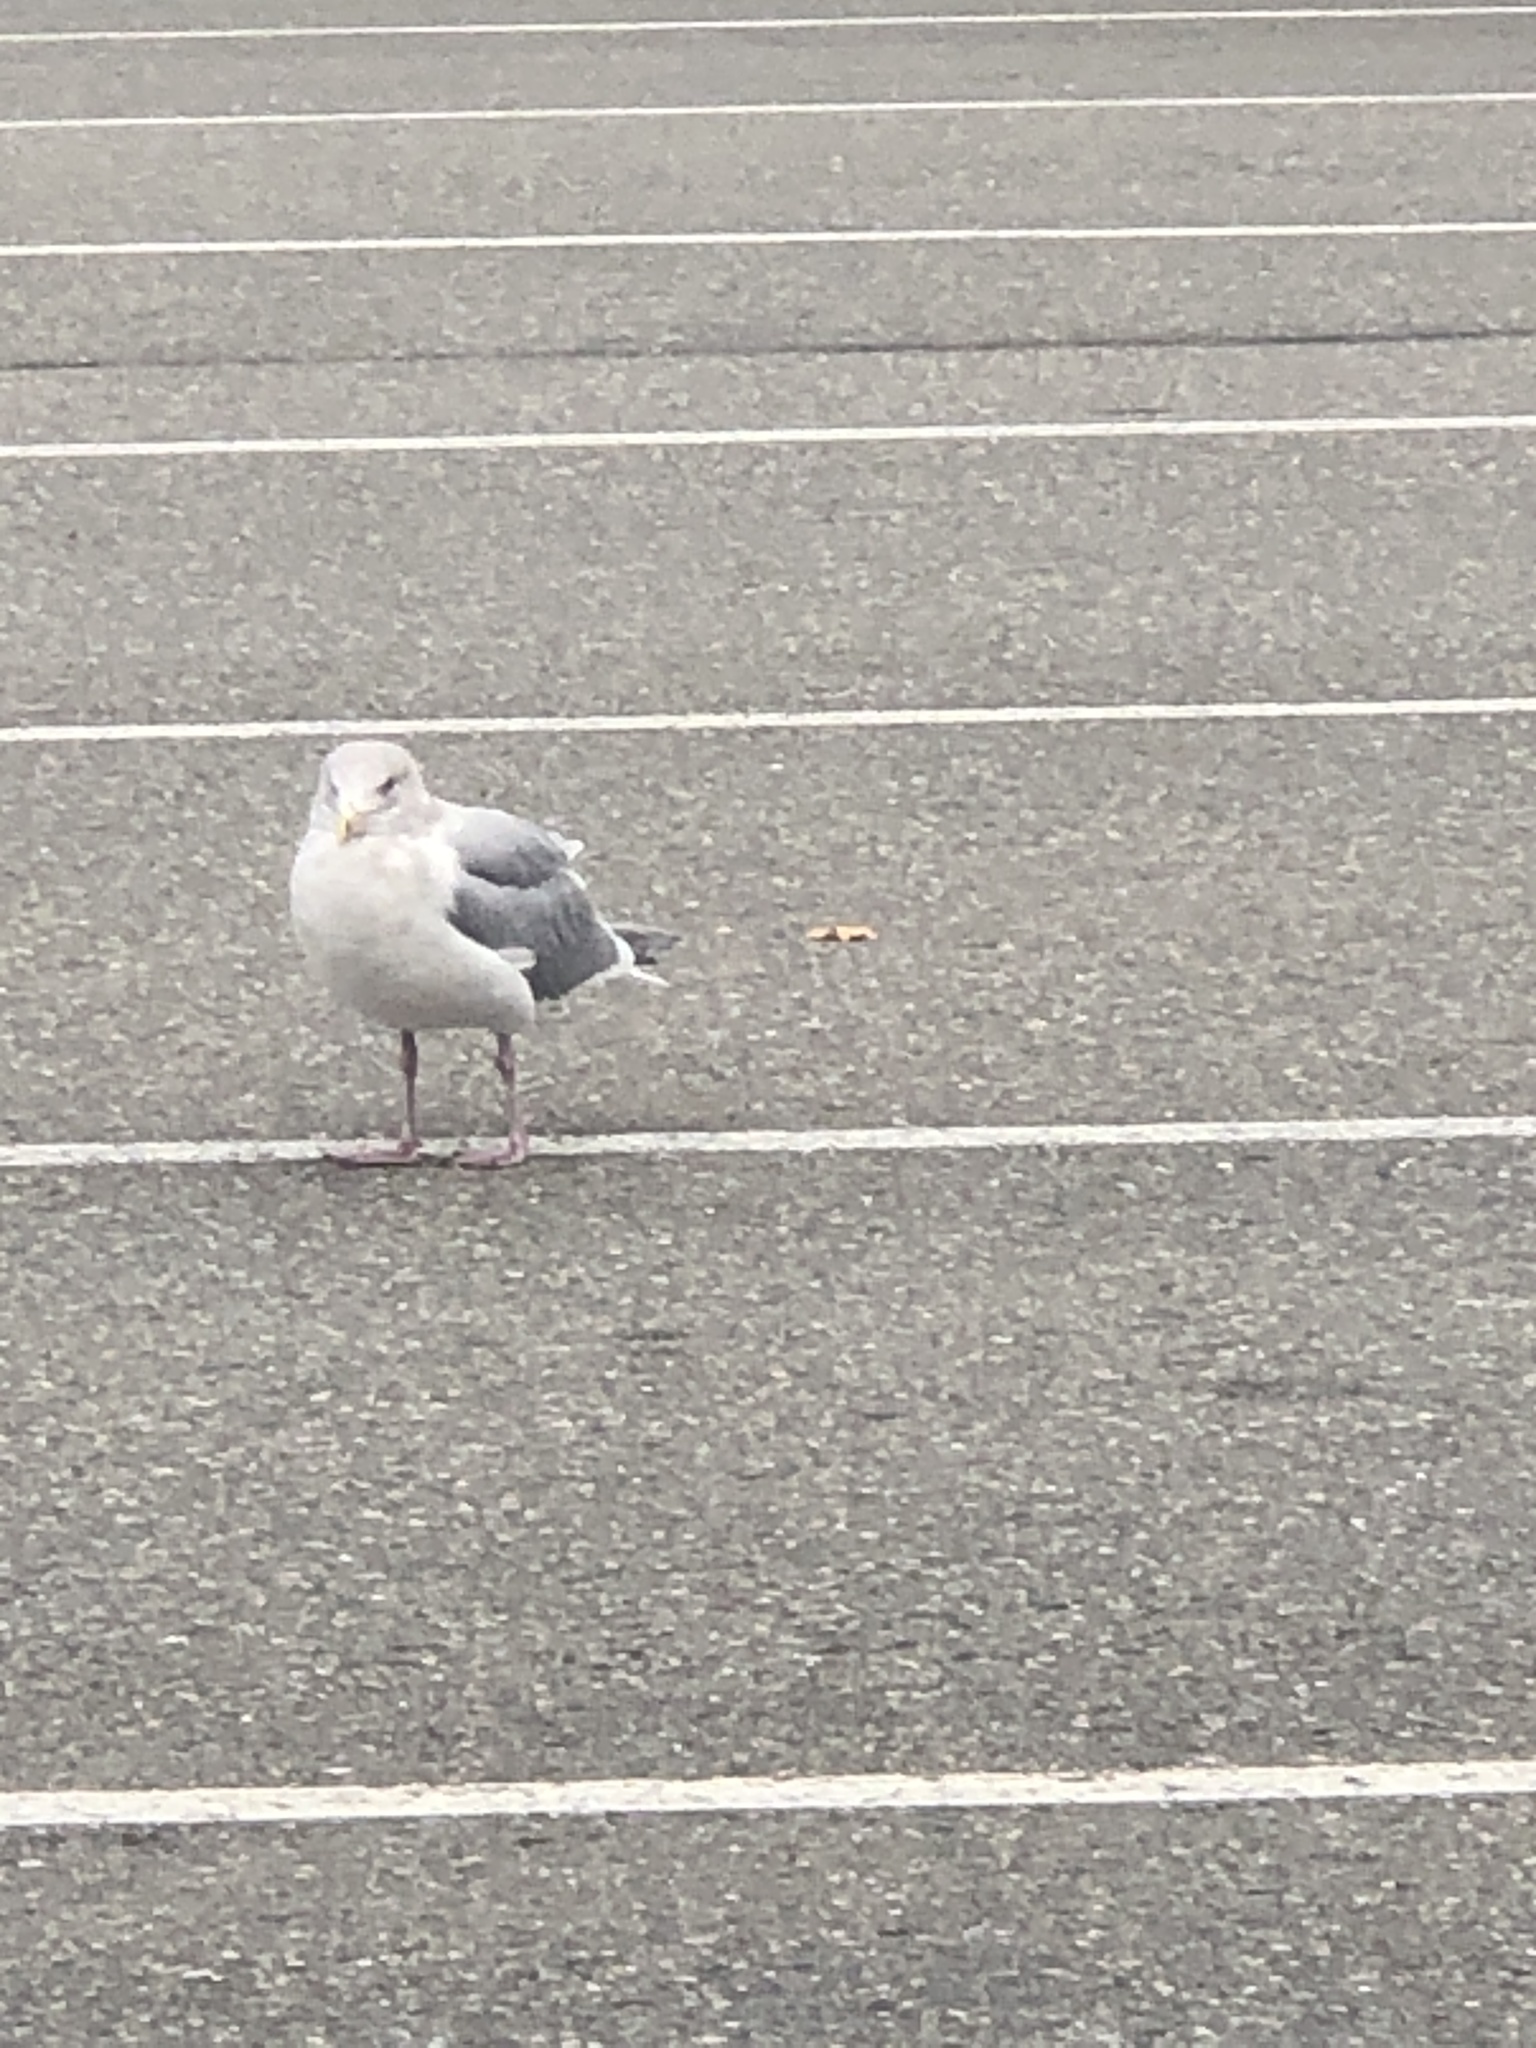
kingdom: Animalia
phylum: Chordata
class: Aves
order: Charadriiformes
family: Laridae
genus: Larus
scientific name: Larus
